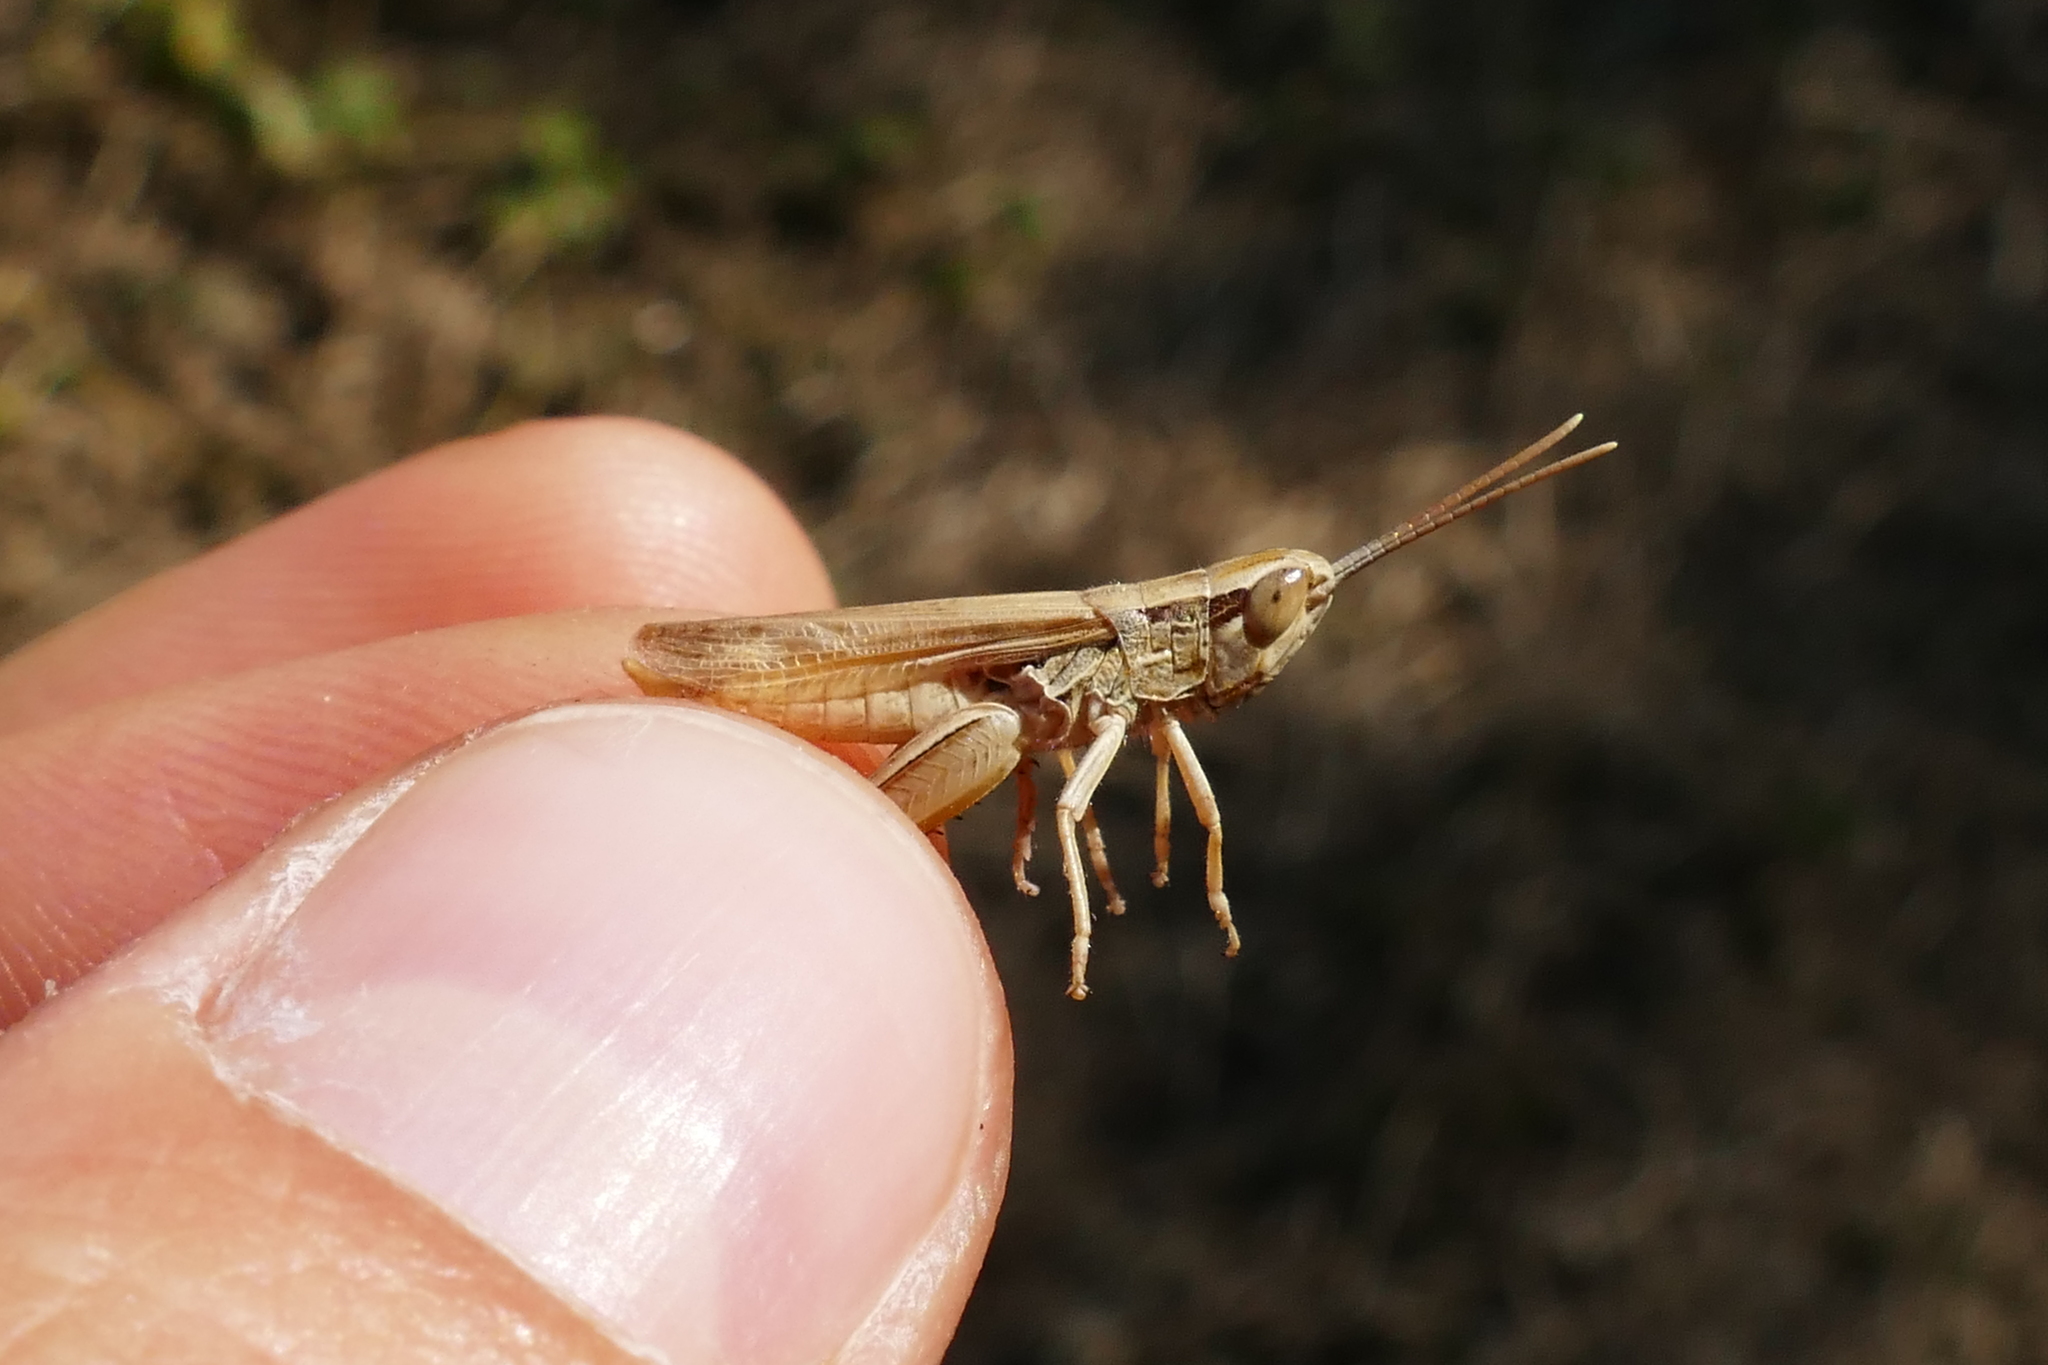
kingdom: Animalia
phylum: Arthropoda
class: Insecta
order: Orthoptera
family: Acrididae
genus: Euchorthippus
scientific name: Euchorthippus elegantulus
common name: Elegant straw grasshopper
